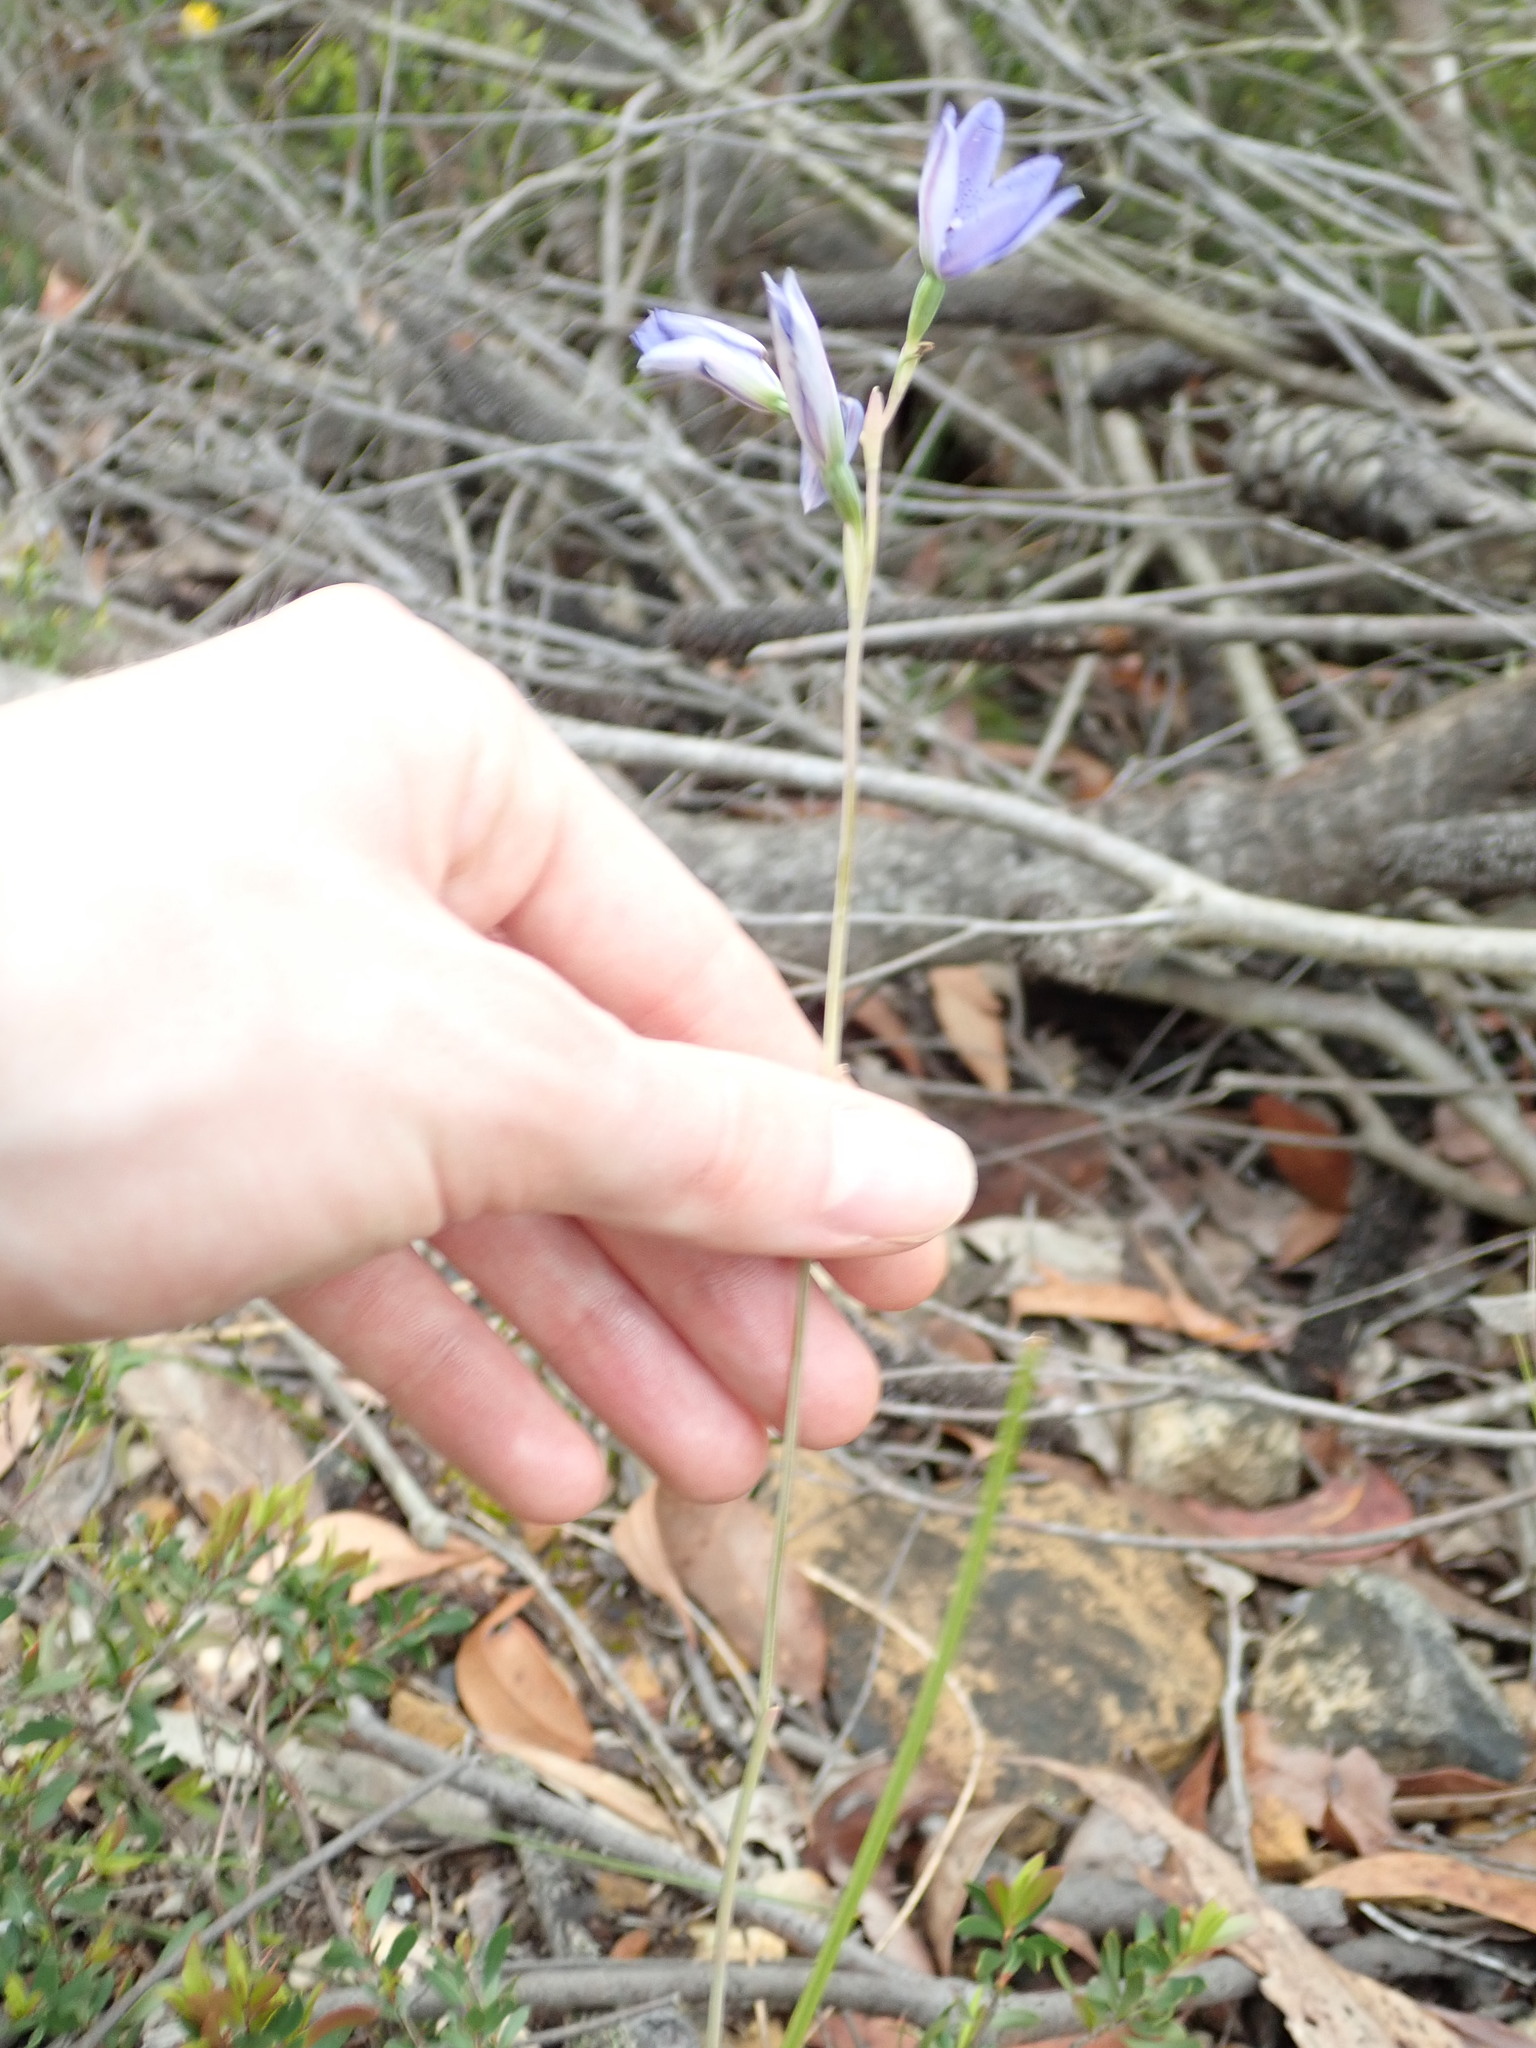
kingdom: Plantae
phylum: Tracheophyta
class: Liliopsida
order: Asparagales
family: Orchidaceae
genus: Thelymitra
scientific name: Thelymitra ixioides
